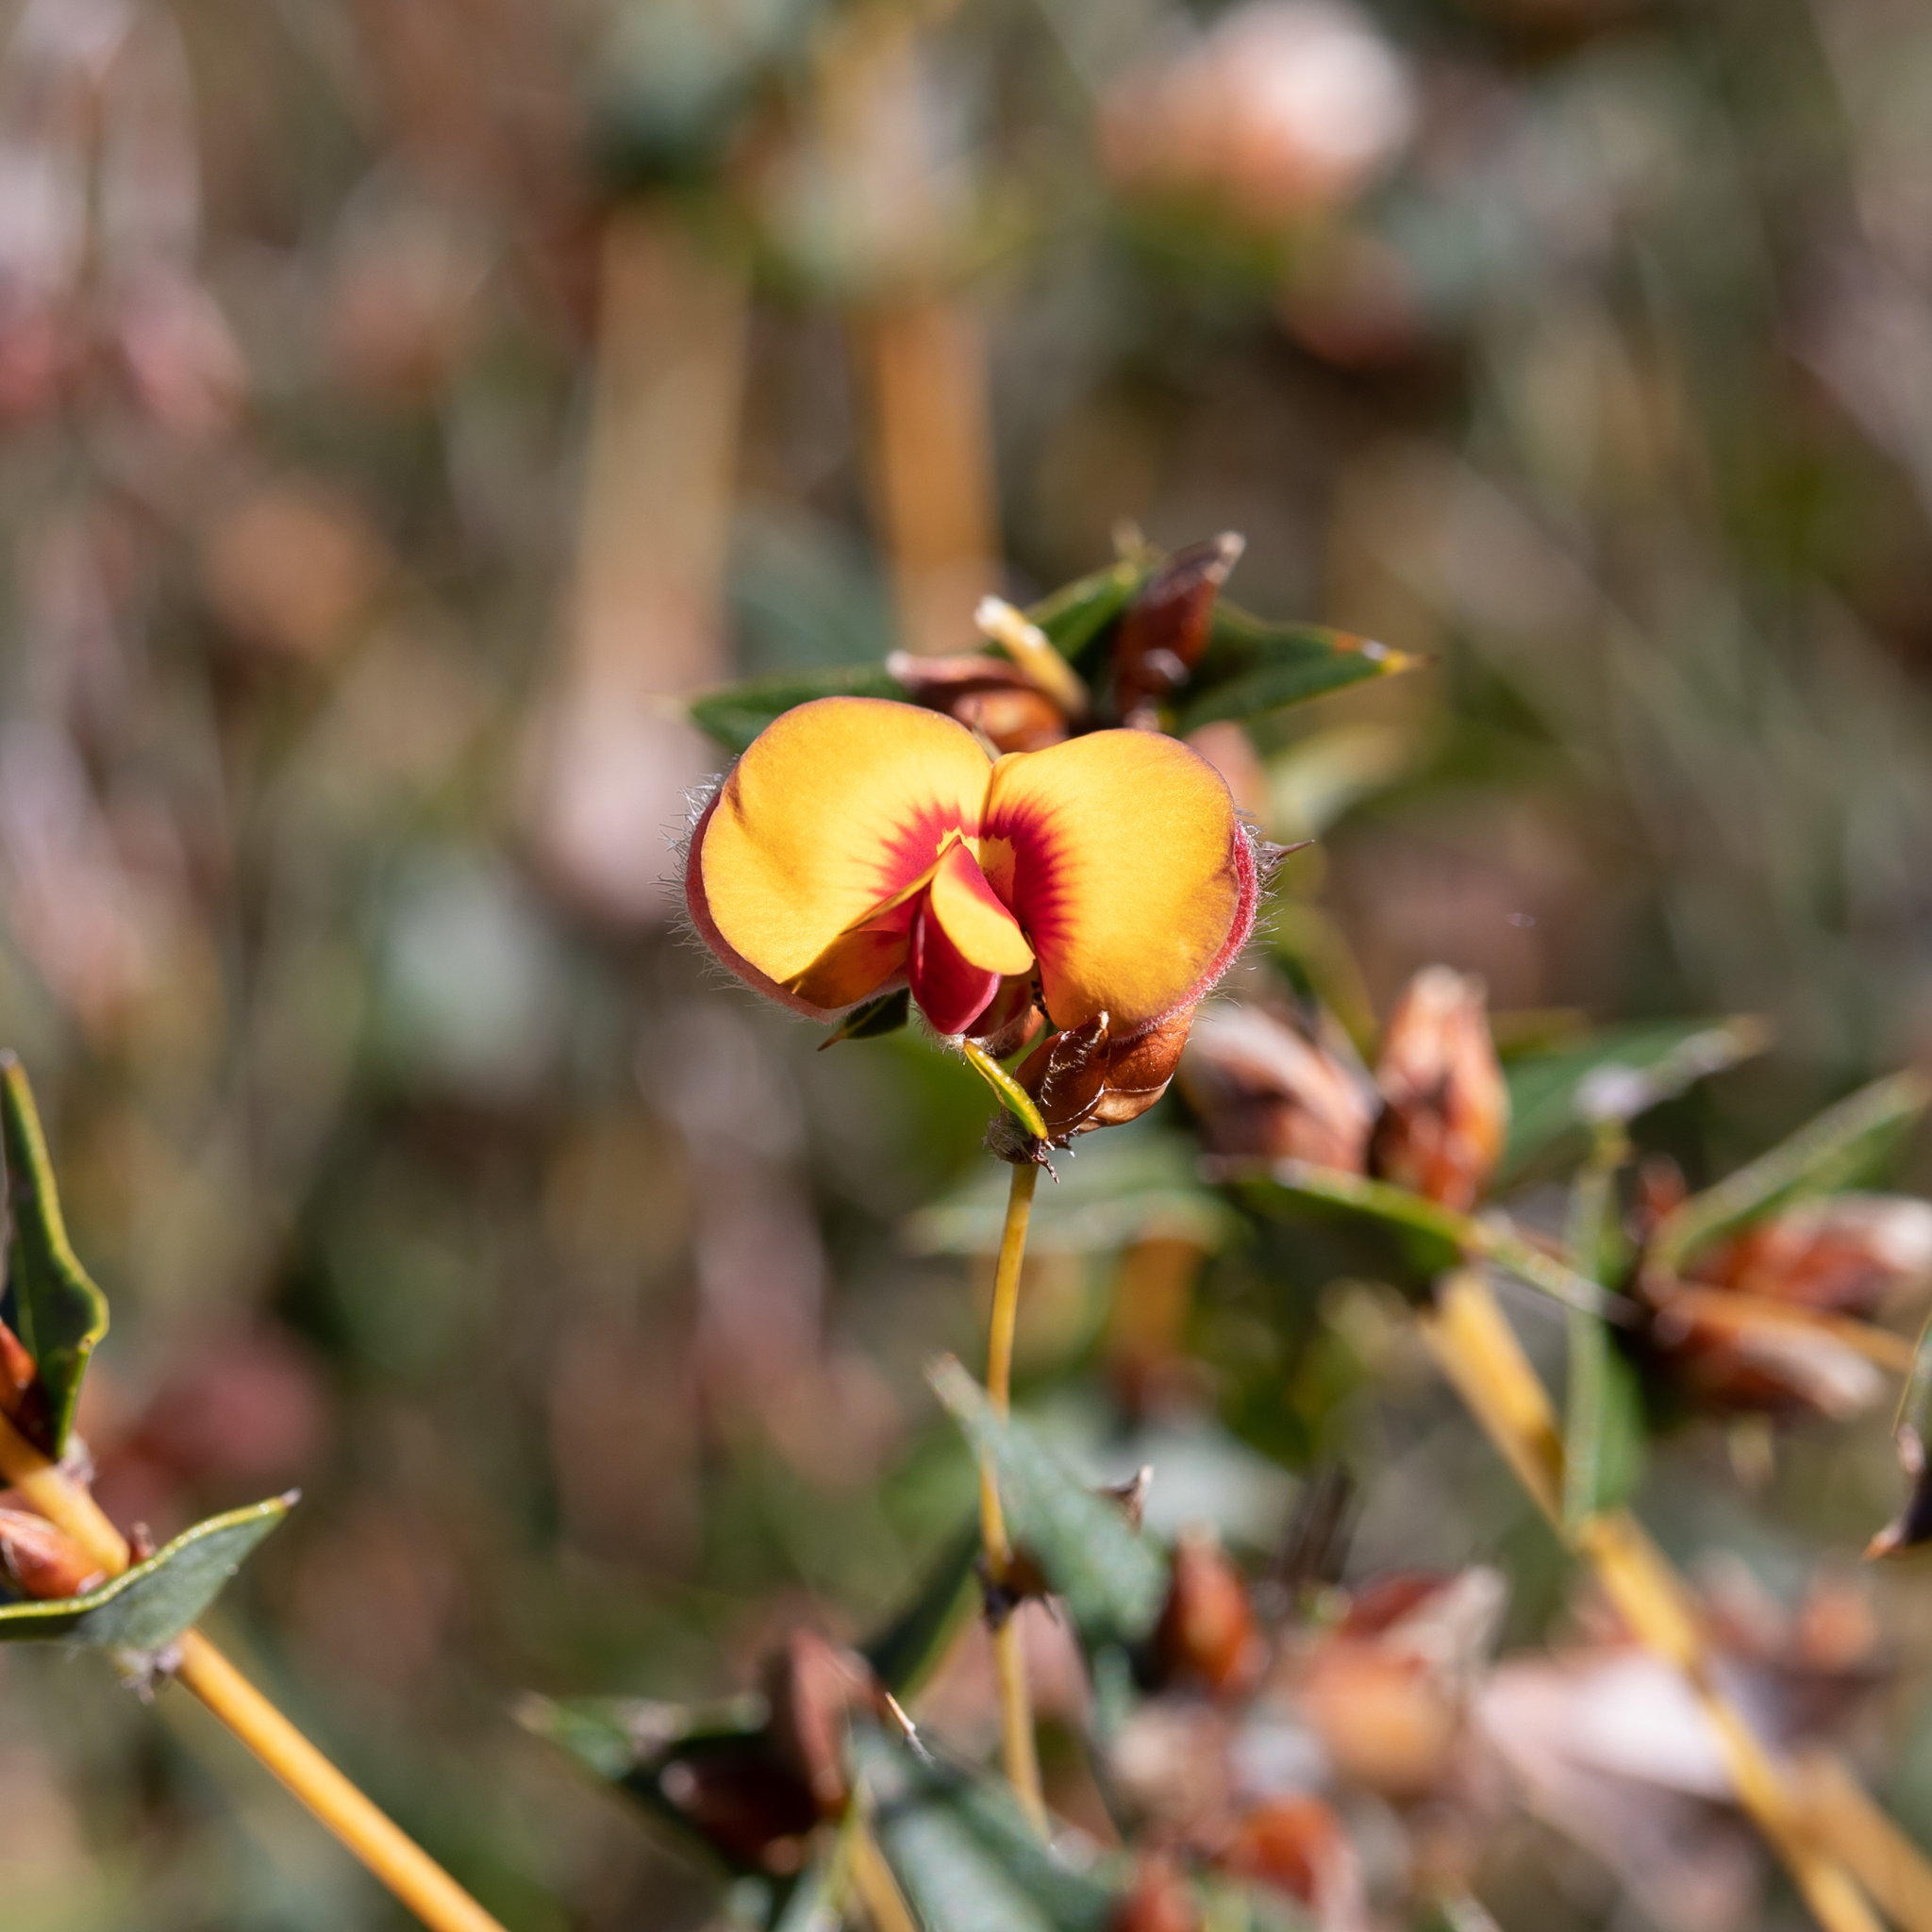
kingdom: Plantae
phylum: Tracheophyta
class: Magnoliopsida
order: Fabales
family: Fabaceae
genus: Platylobium
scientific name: Platylobium obtusangulum
